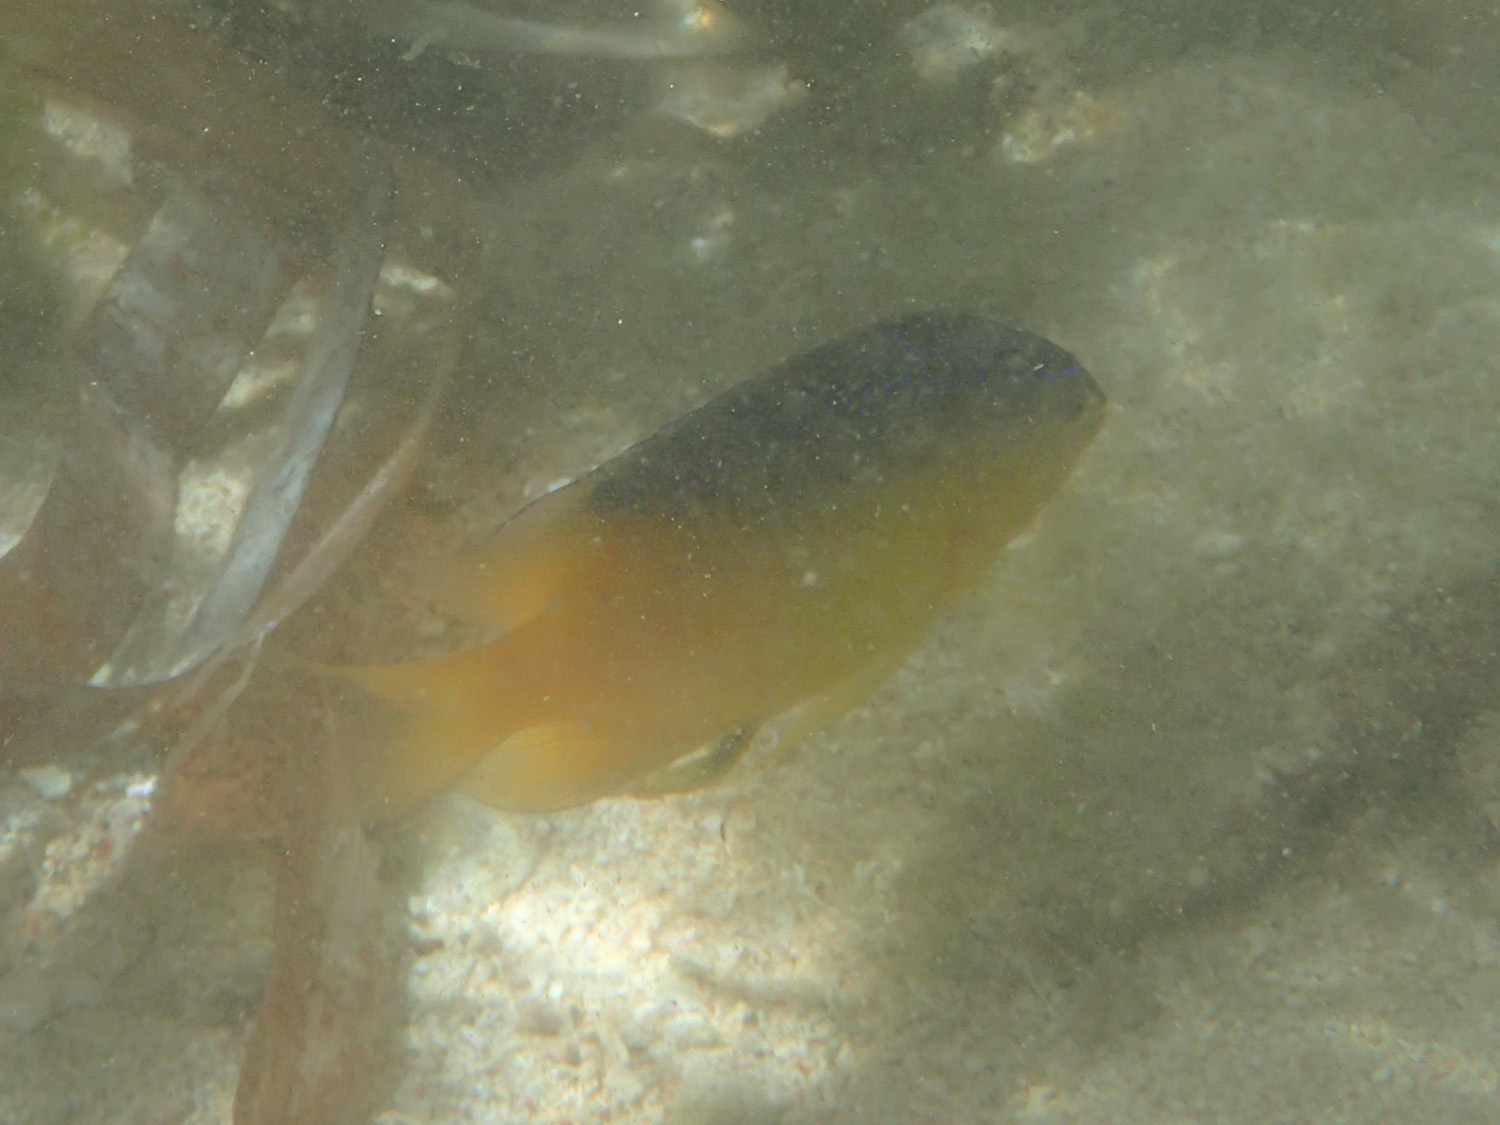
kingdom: Animalia
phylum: Chordata
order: Perciformes
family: Pomacentridae
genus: Stegastes
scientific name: Stegastes leucostictus
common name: Beaugregory
